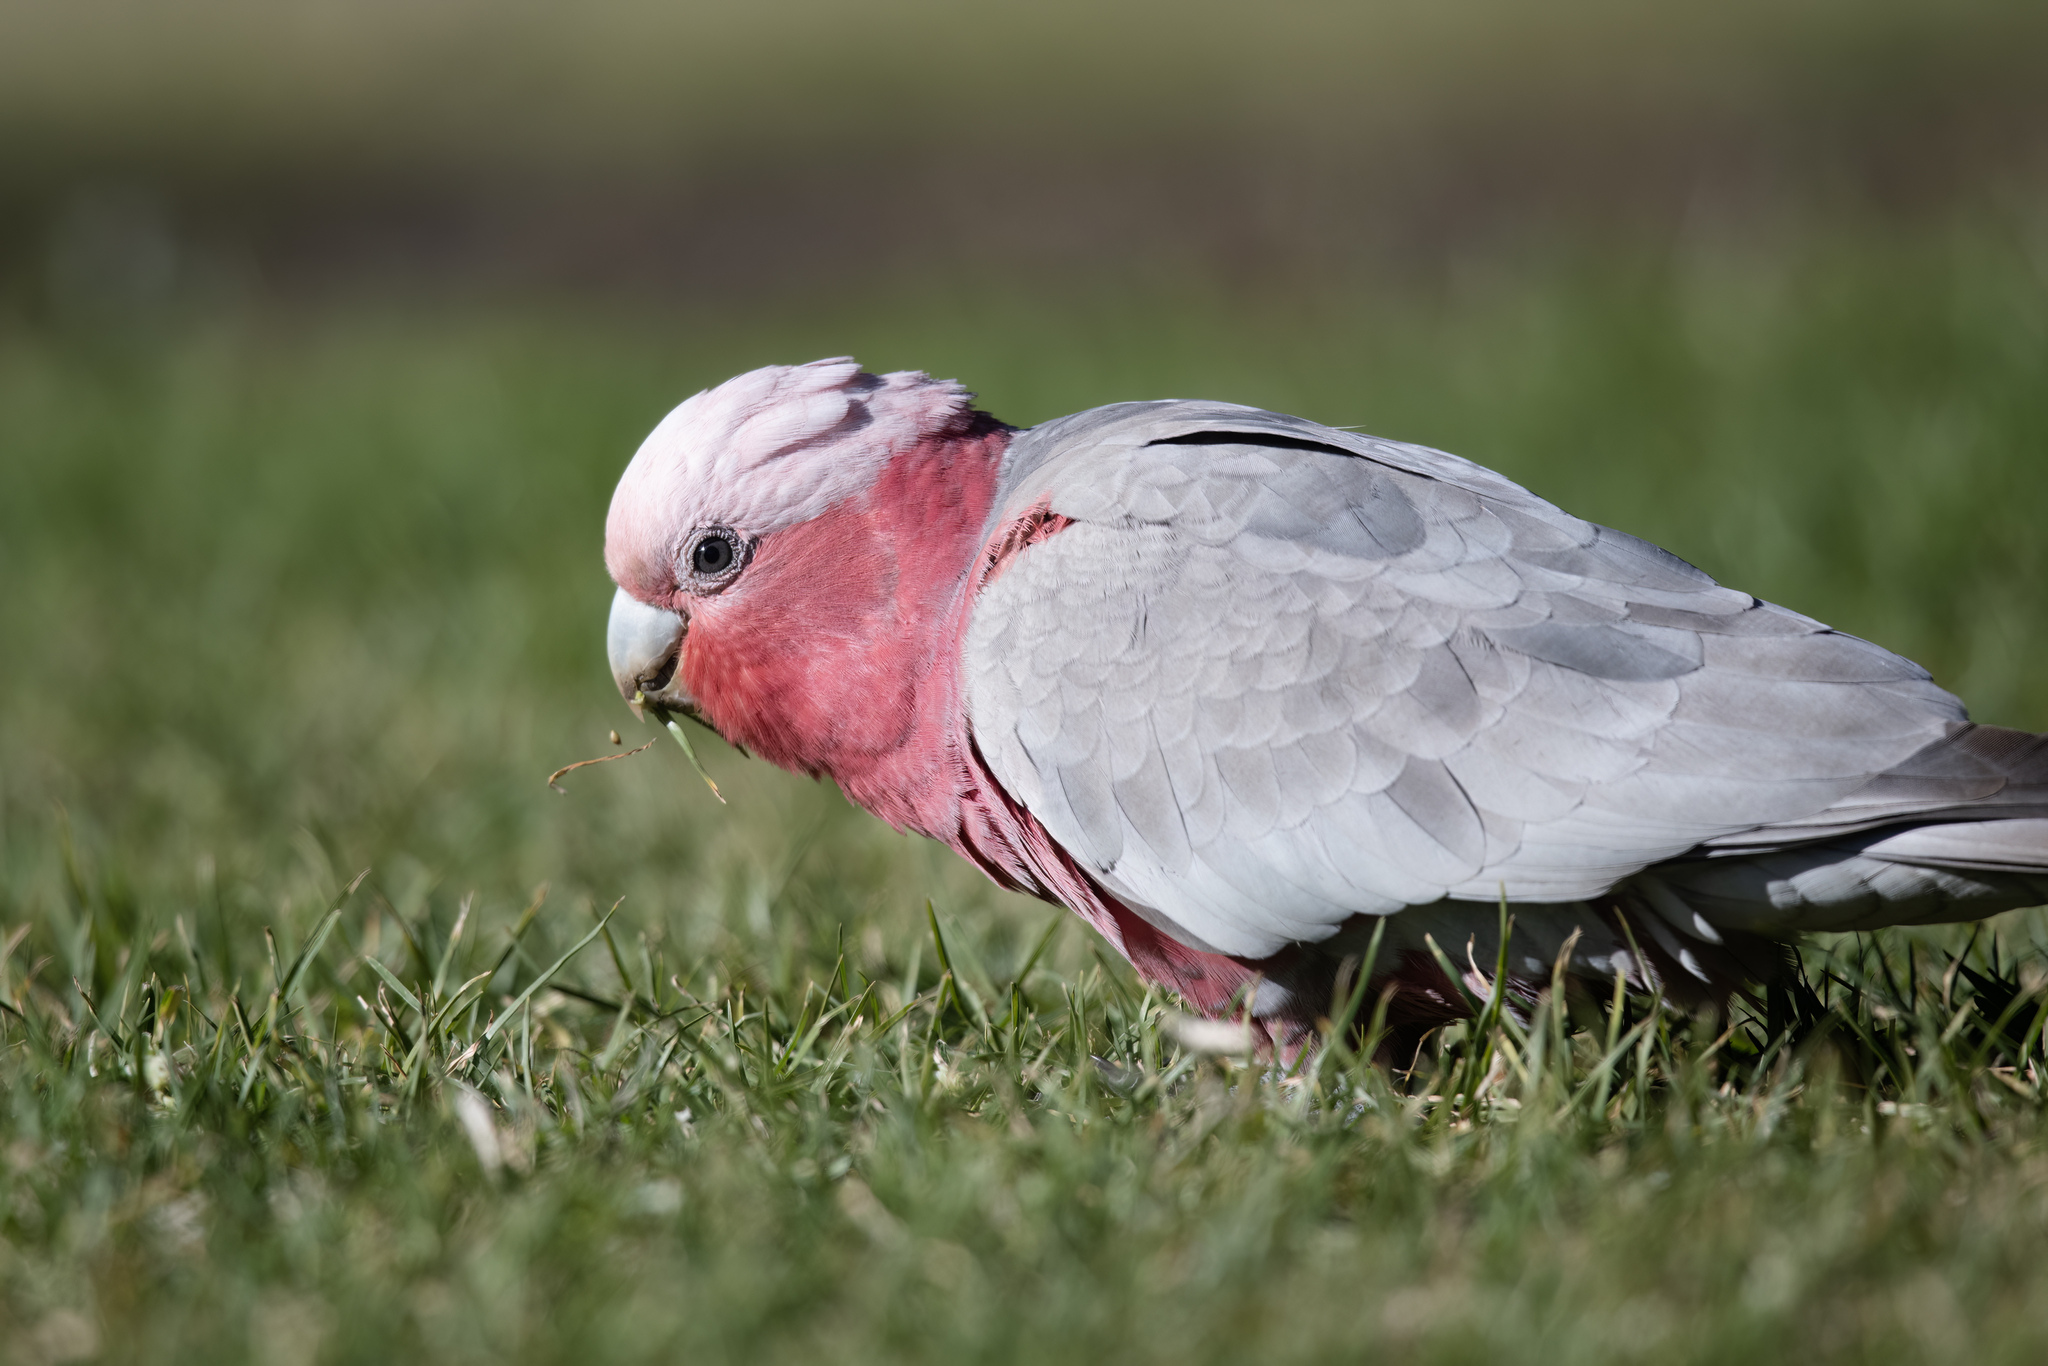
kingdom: Animalia
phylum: Chordata
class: Aves
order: Psittaciformes
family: Psittacidae
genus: Eolophus
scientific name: Eolophus roseicapilla
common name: Galah
